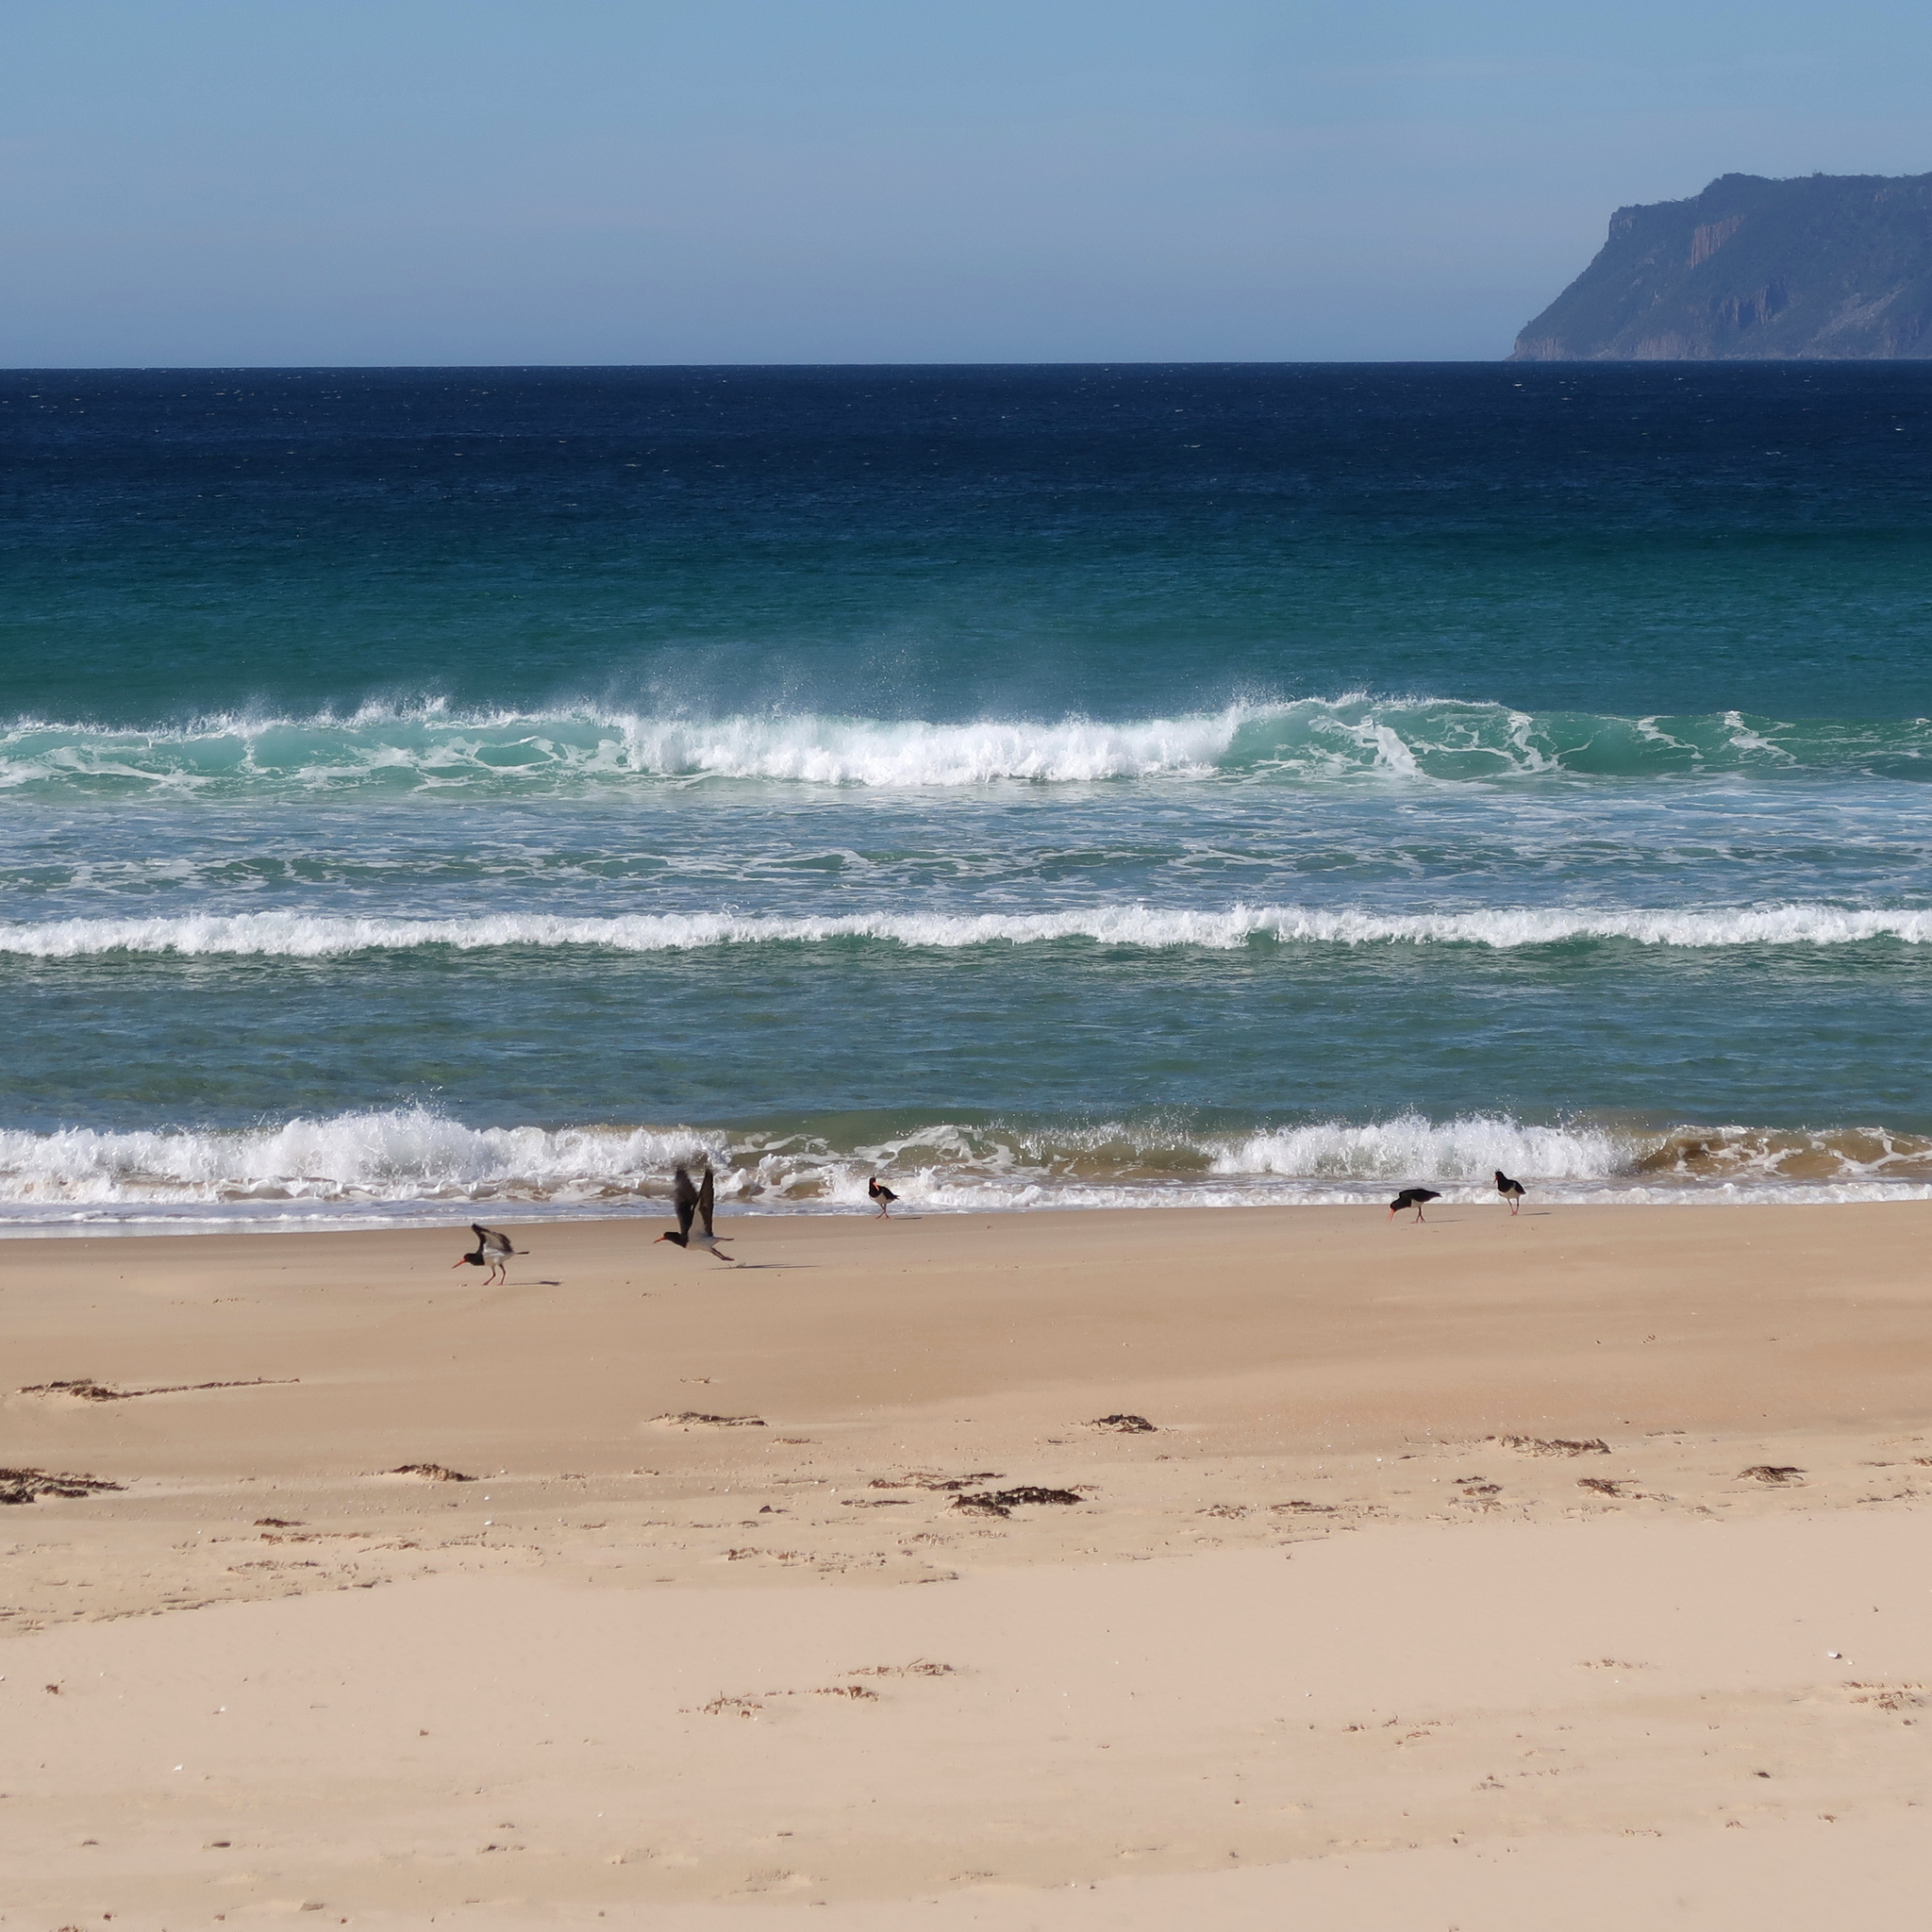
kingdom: Animalia
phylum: Chordata
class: Aves
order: Charadriiformes
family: Haematopodidae
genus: Haematopus
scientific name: Haematopus longirostris
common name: Pied oystercatcher
